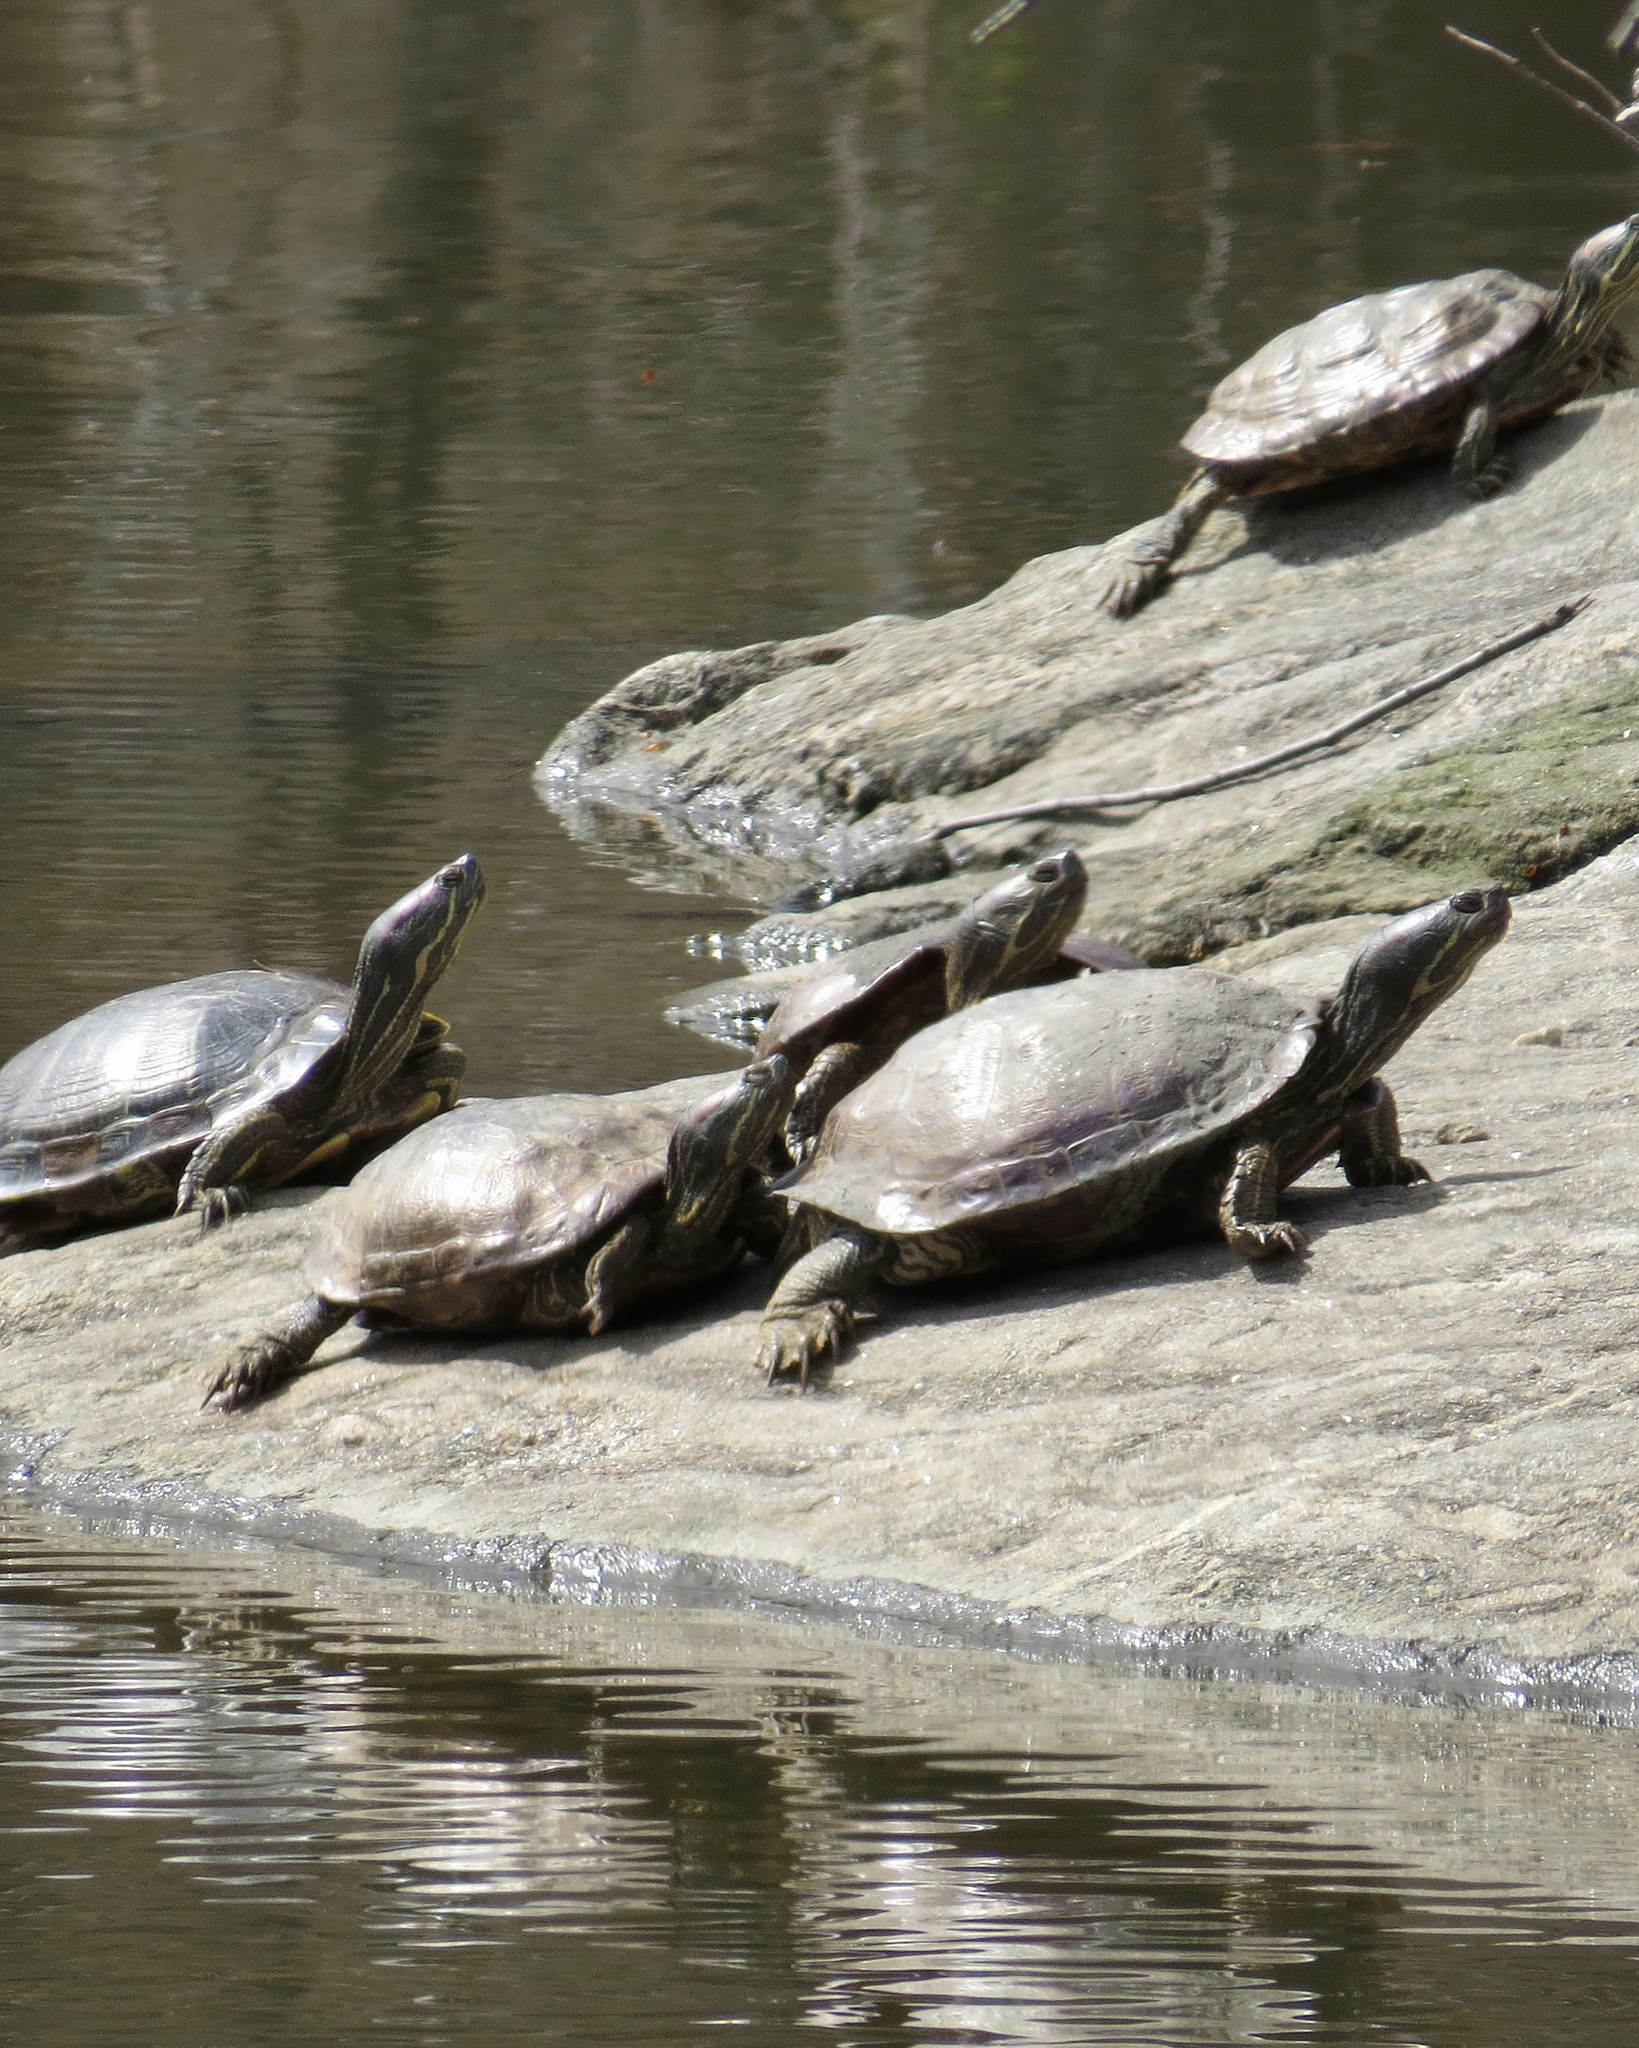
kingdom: Animalia
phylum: Chordata
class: Testudines
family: Emydidae
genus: Trachemys
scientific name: Trachemys scripta
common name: Slider
